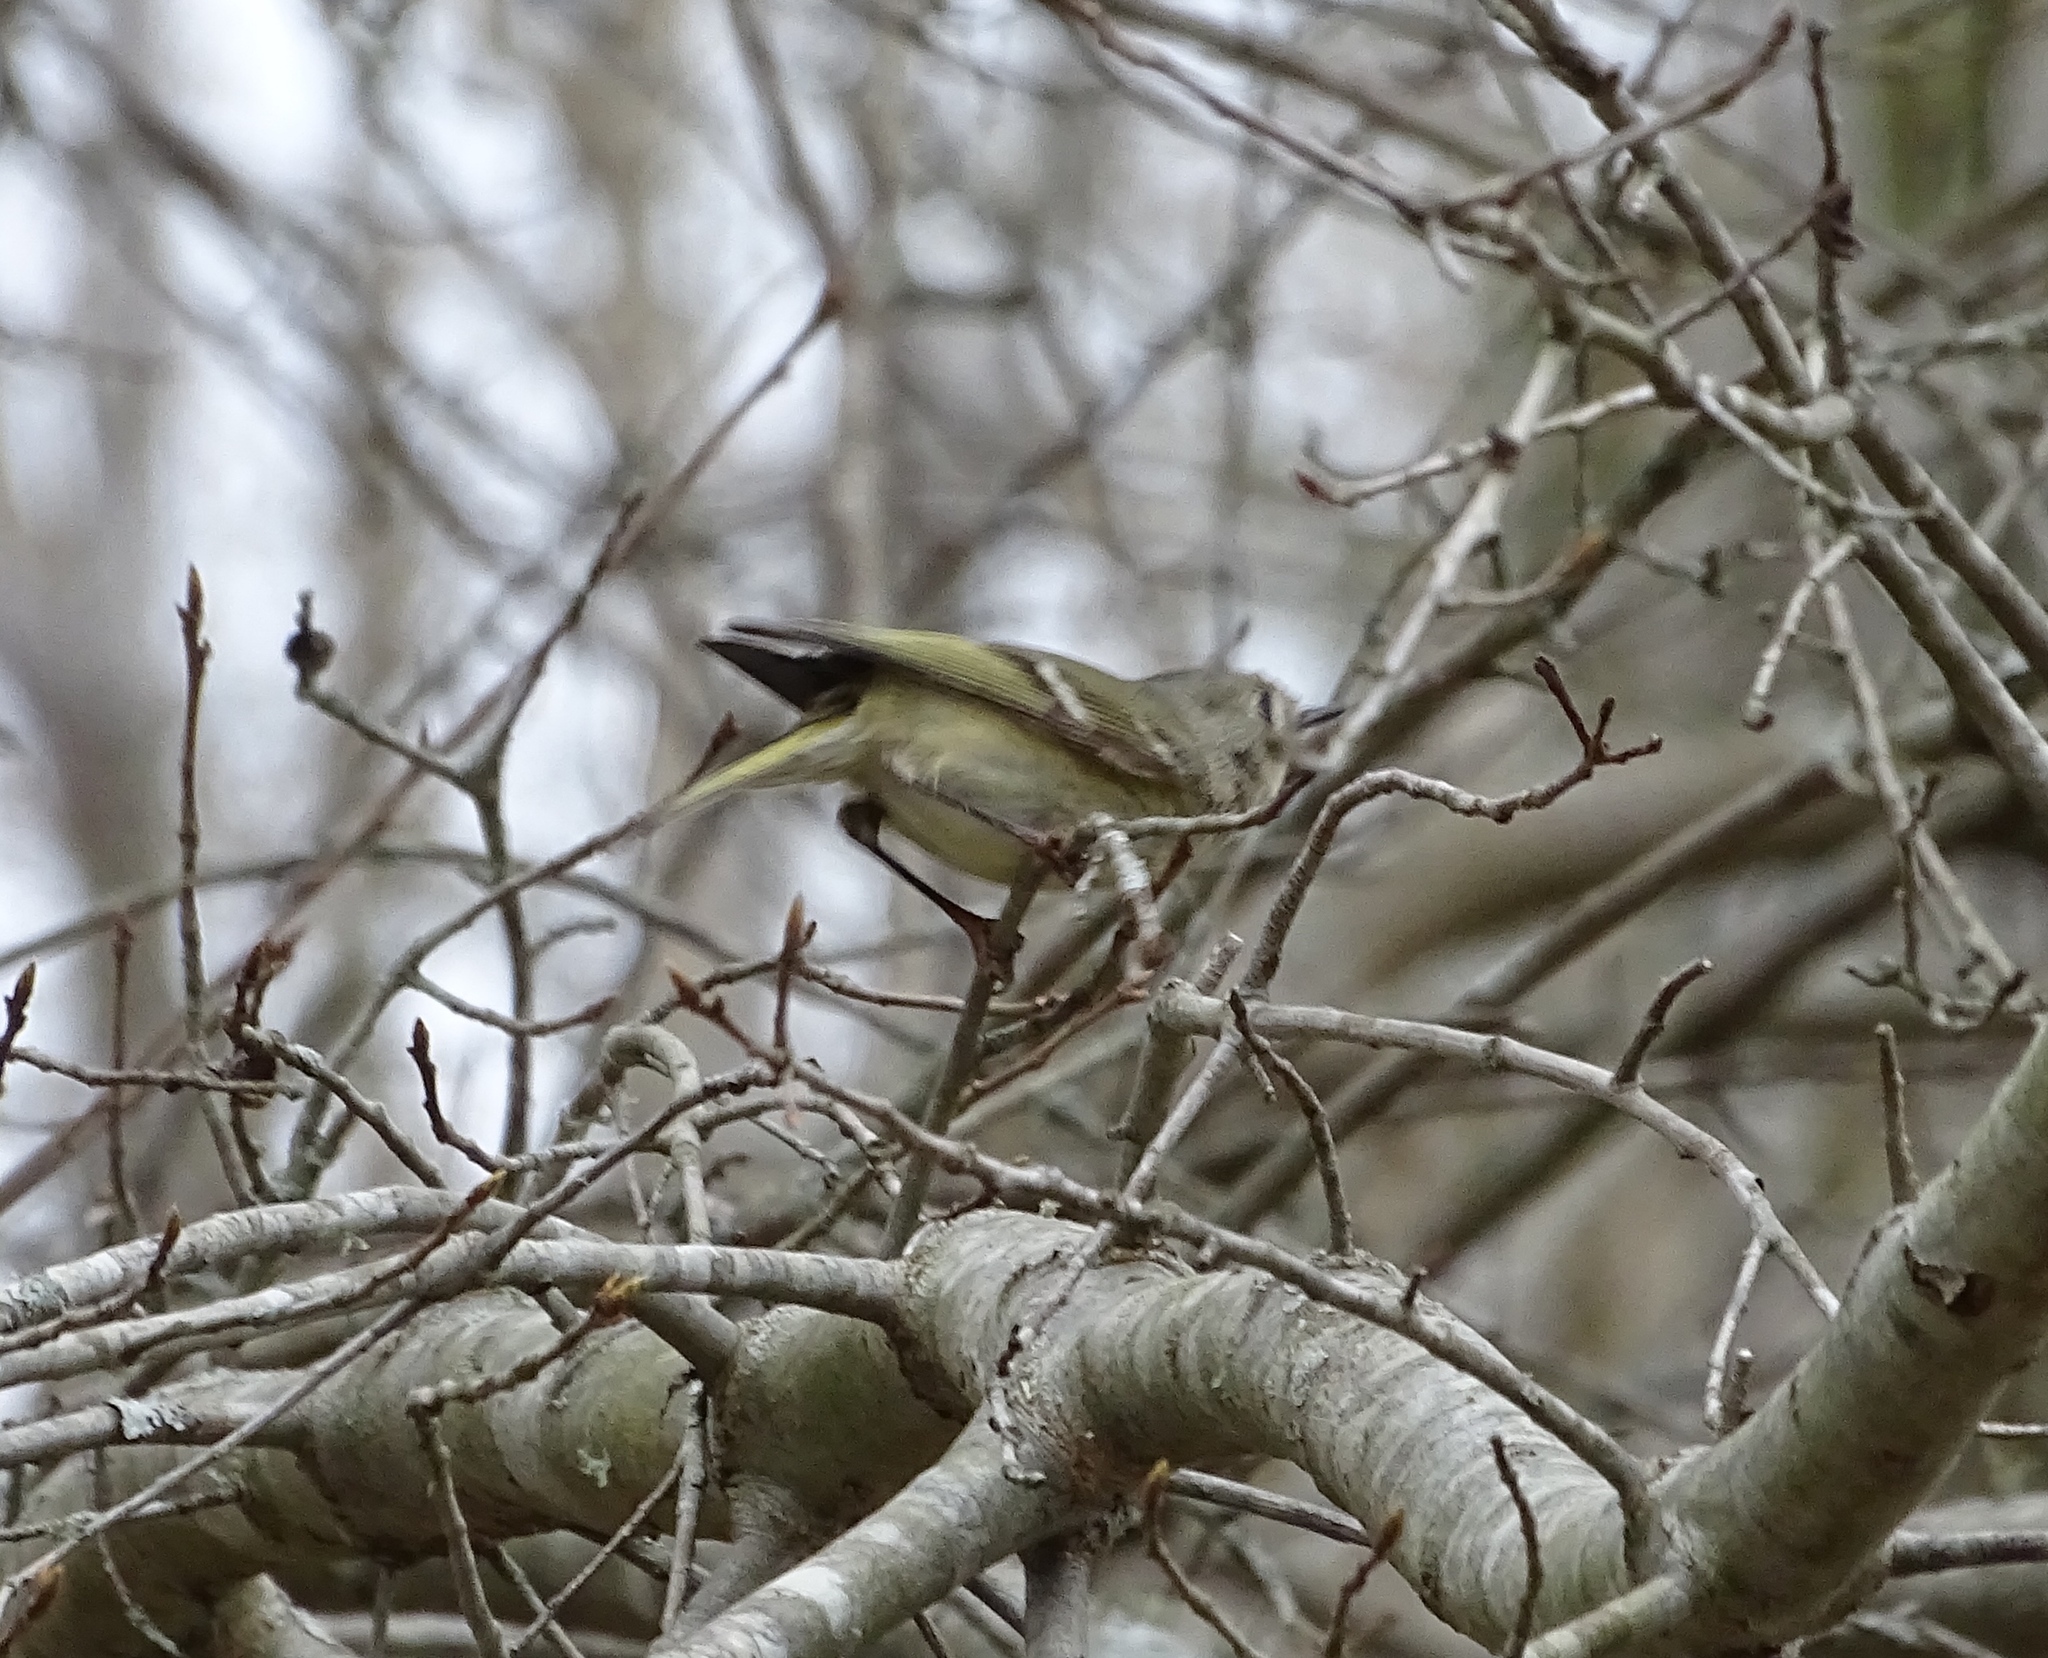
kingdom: Animalia
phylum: Chordata
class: Aves
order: Passeriformes
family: Regulidae
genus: Regulus
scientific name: Regulus calendula
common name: Ruby-crowned kinglet
